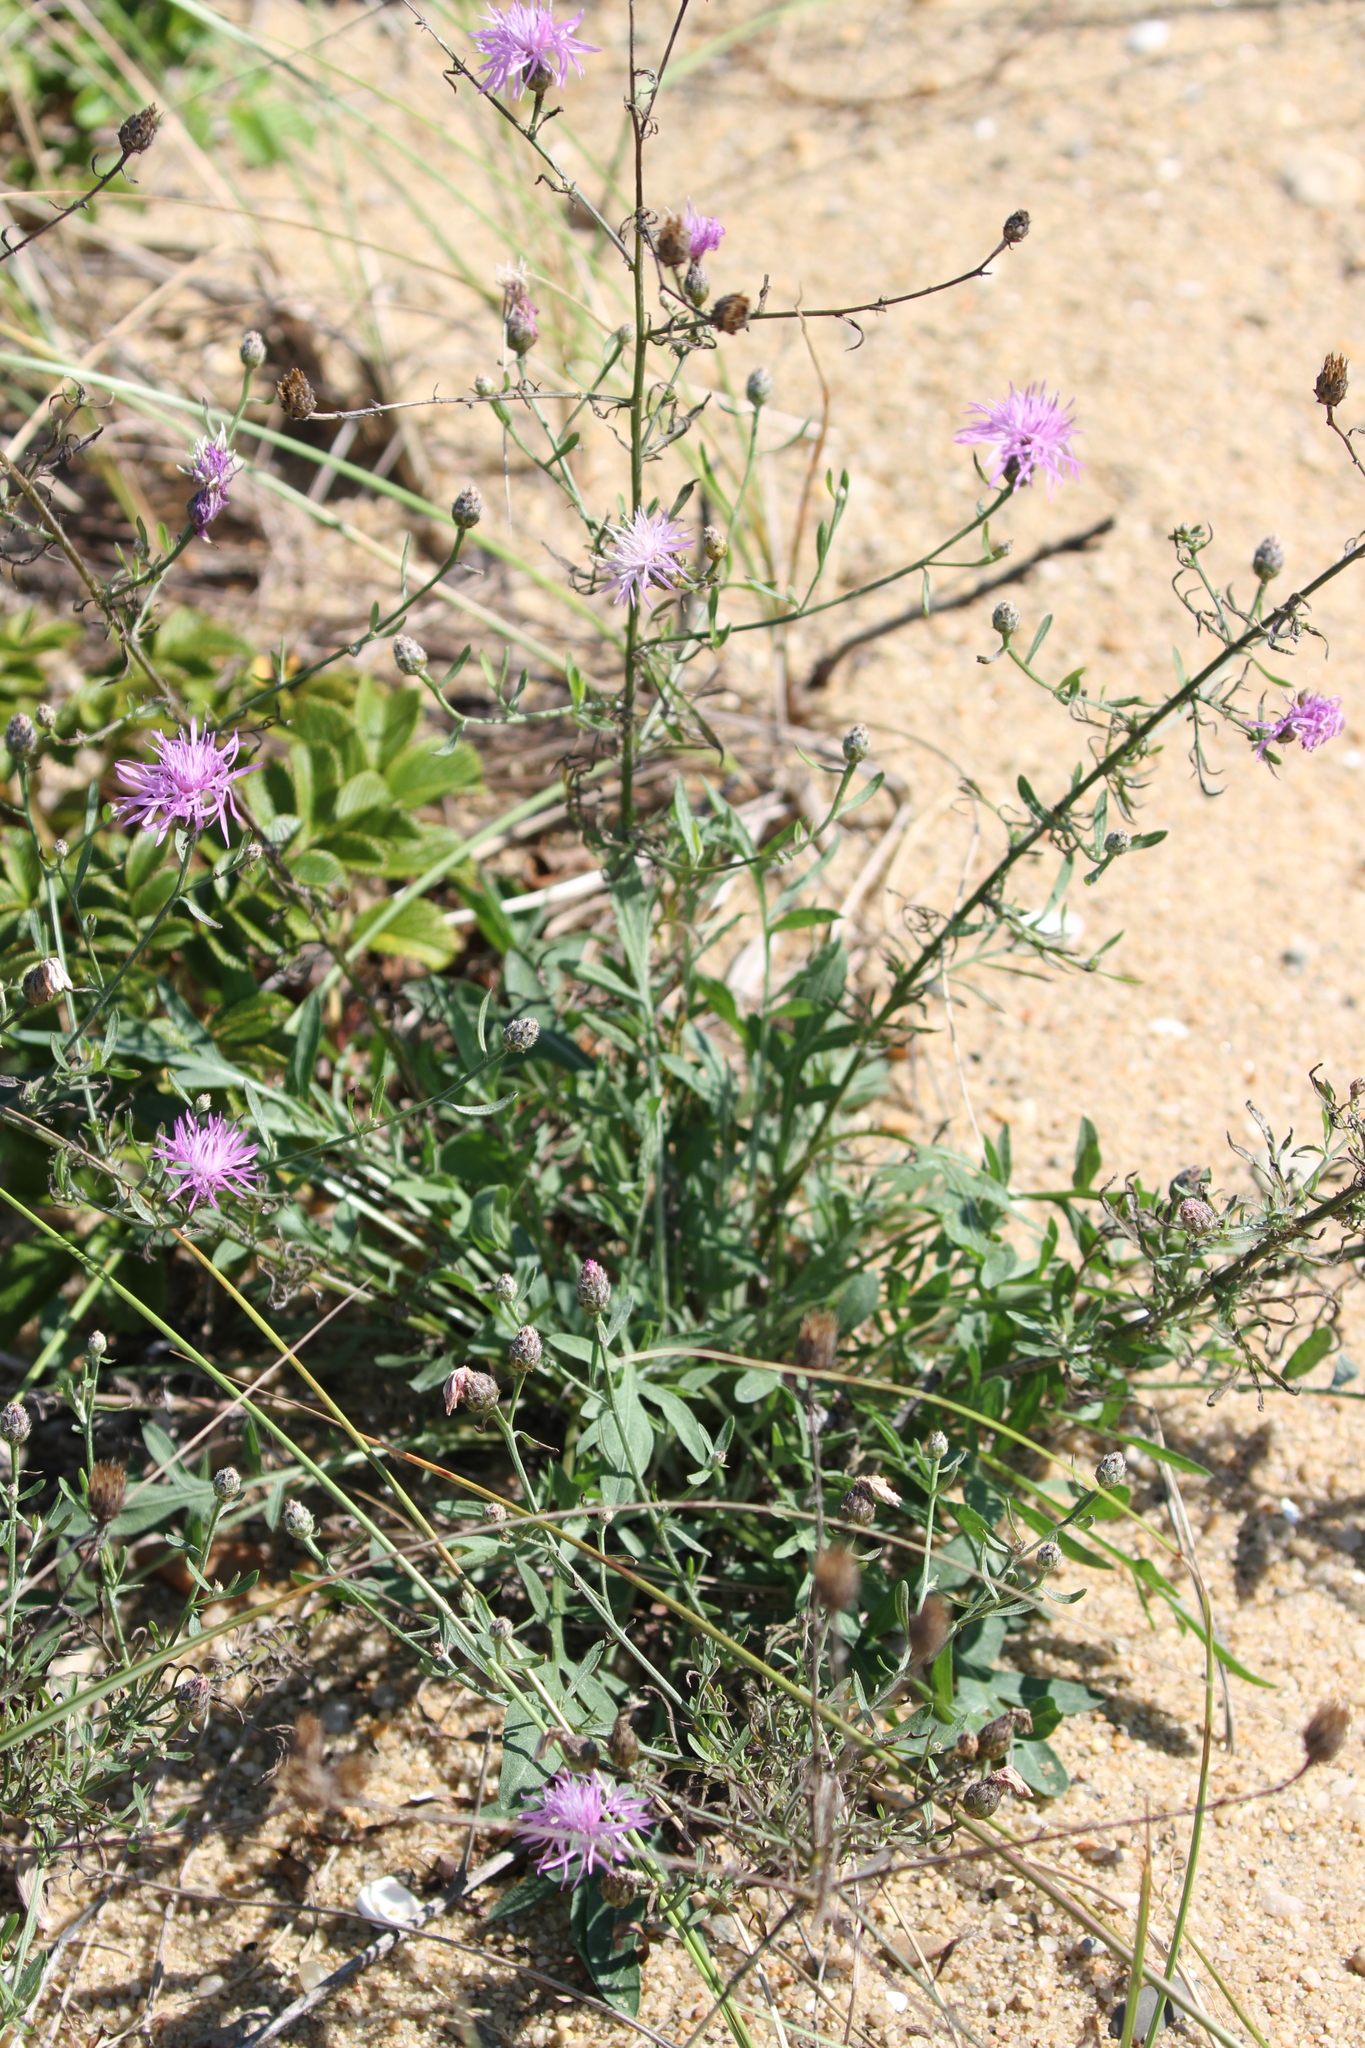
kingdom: Plantae
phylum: Tracheophyta
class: Magnoliopsida
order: Asterales
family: Asteraceae
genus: Centaurea
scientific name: Centaurea stoebe
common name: Spotted knapweed
